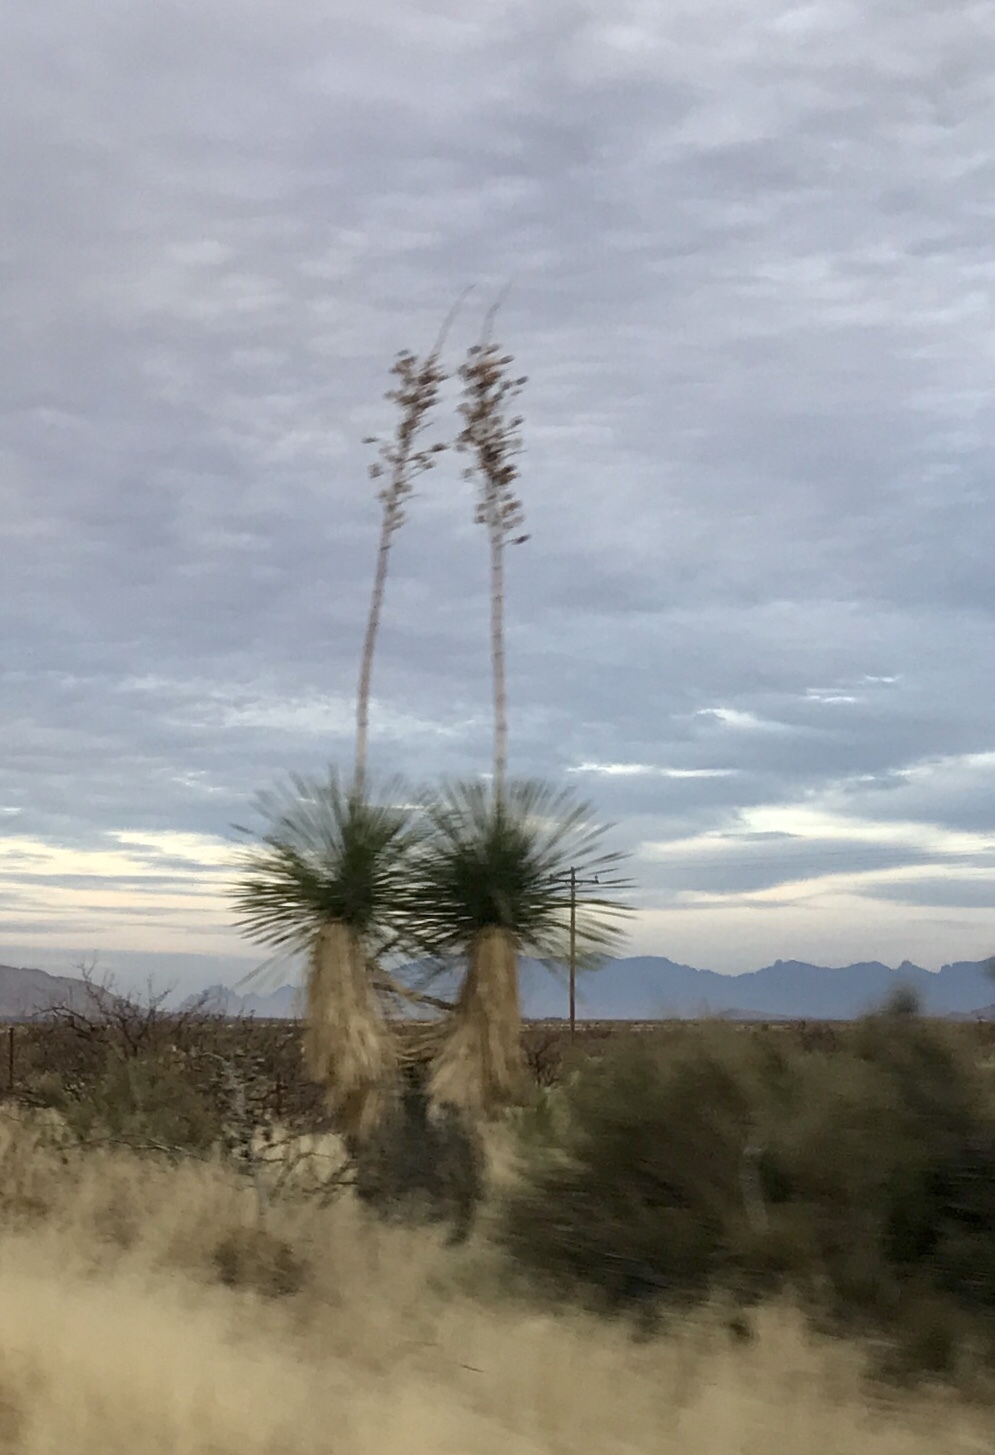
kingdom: Plantae
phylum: Tracheophyta
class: Liliopsida
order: Asparagales
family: Asparagaceae
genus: Yucca
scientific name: Yucca elata
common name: Palmella
